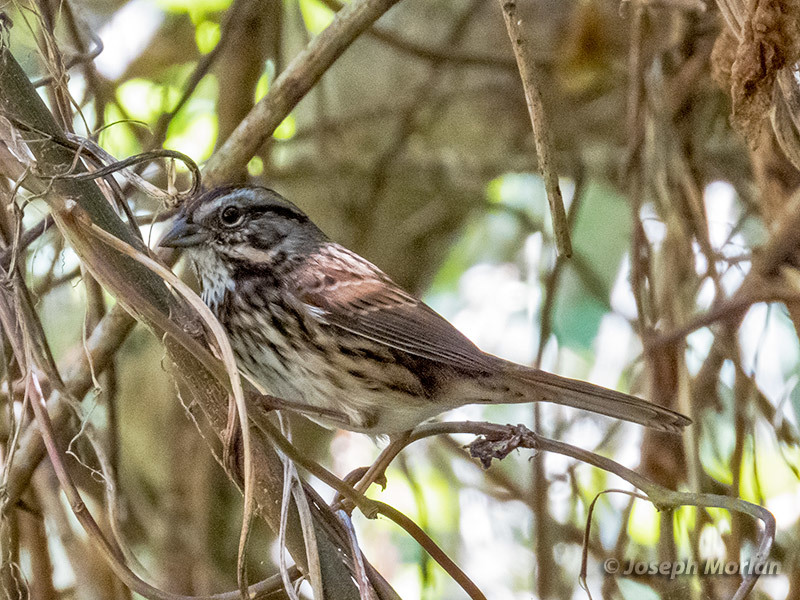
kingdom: Animalia
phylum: Chordata
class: Aves
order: Passeriformes
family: Passerellidae
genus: Melospiza
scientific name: Melospiza melodia
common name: Song sparrow
